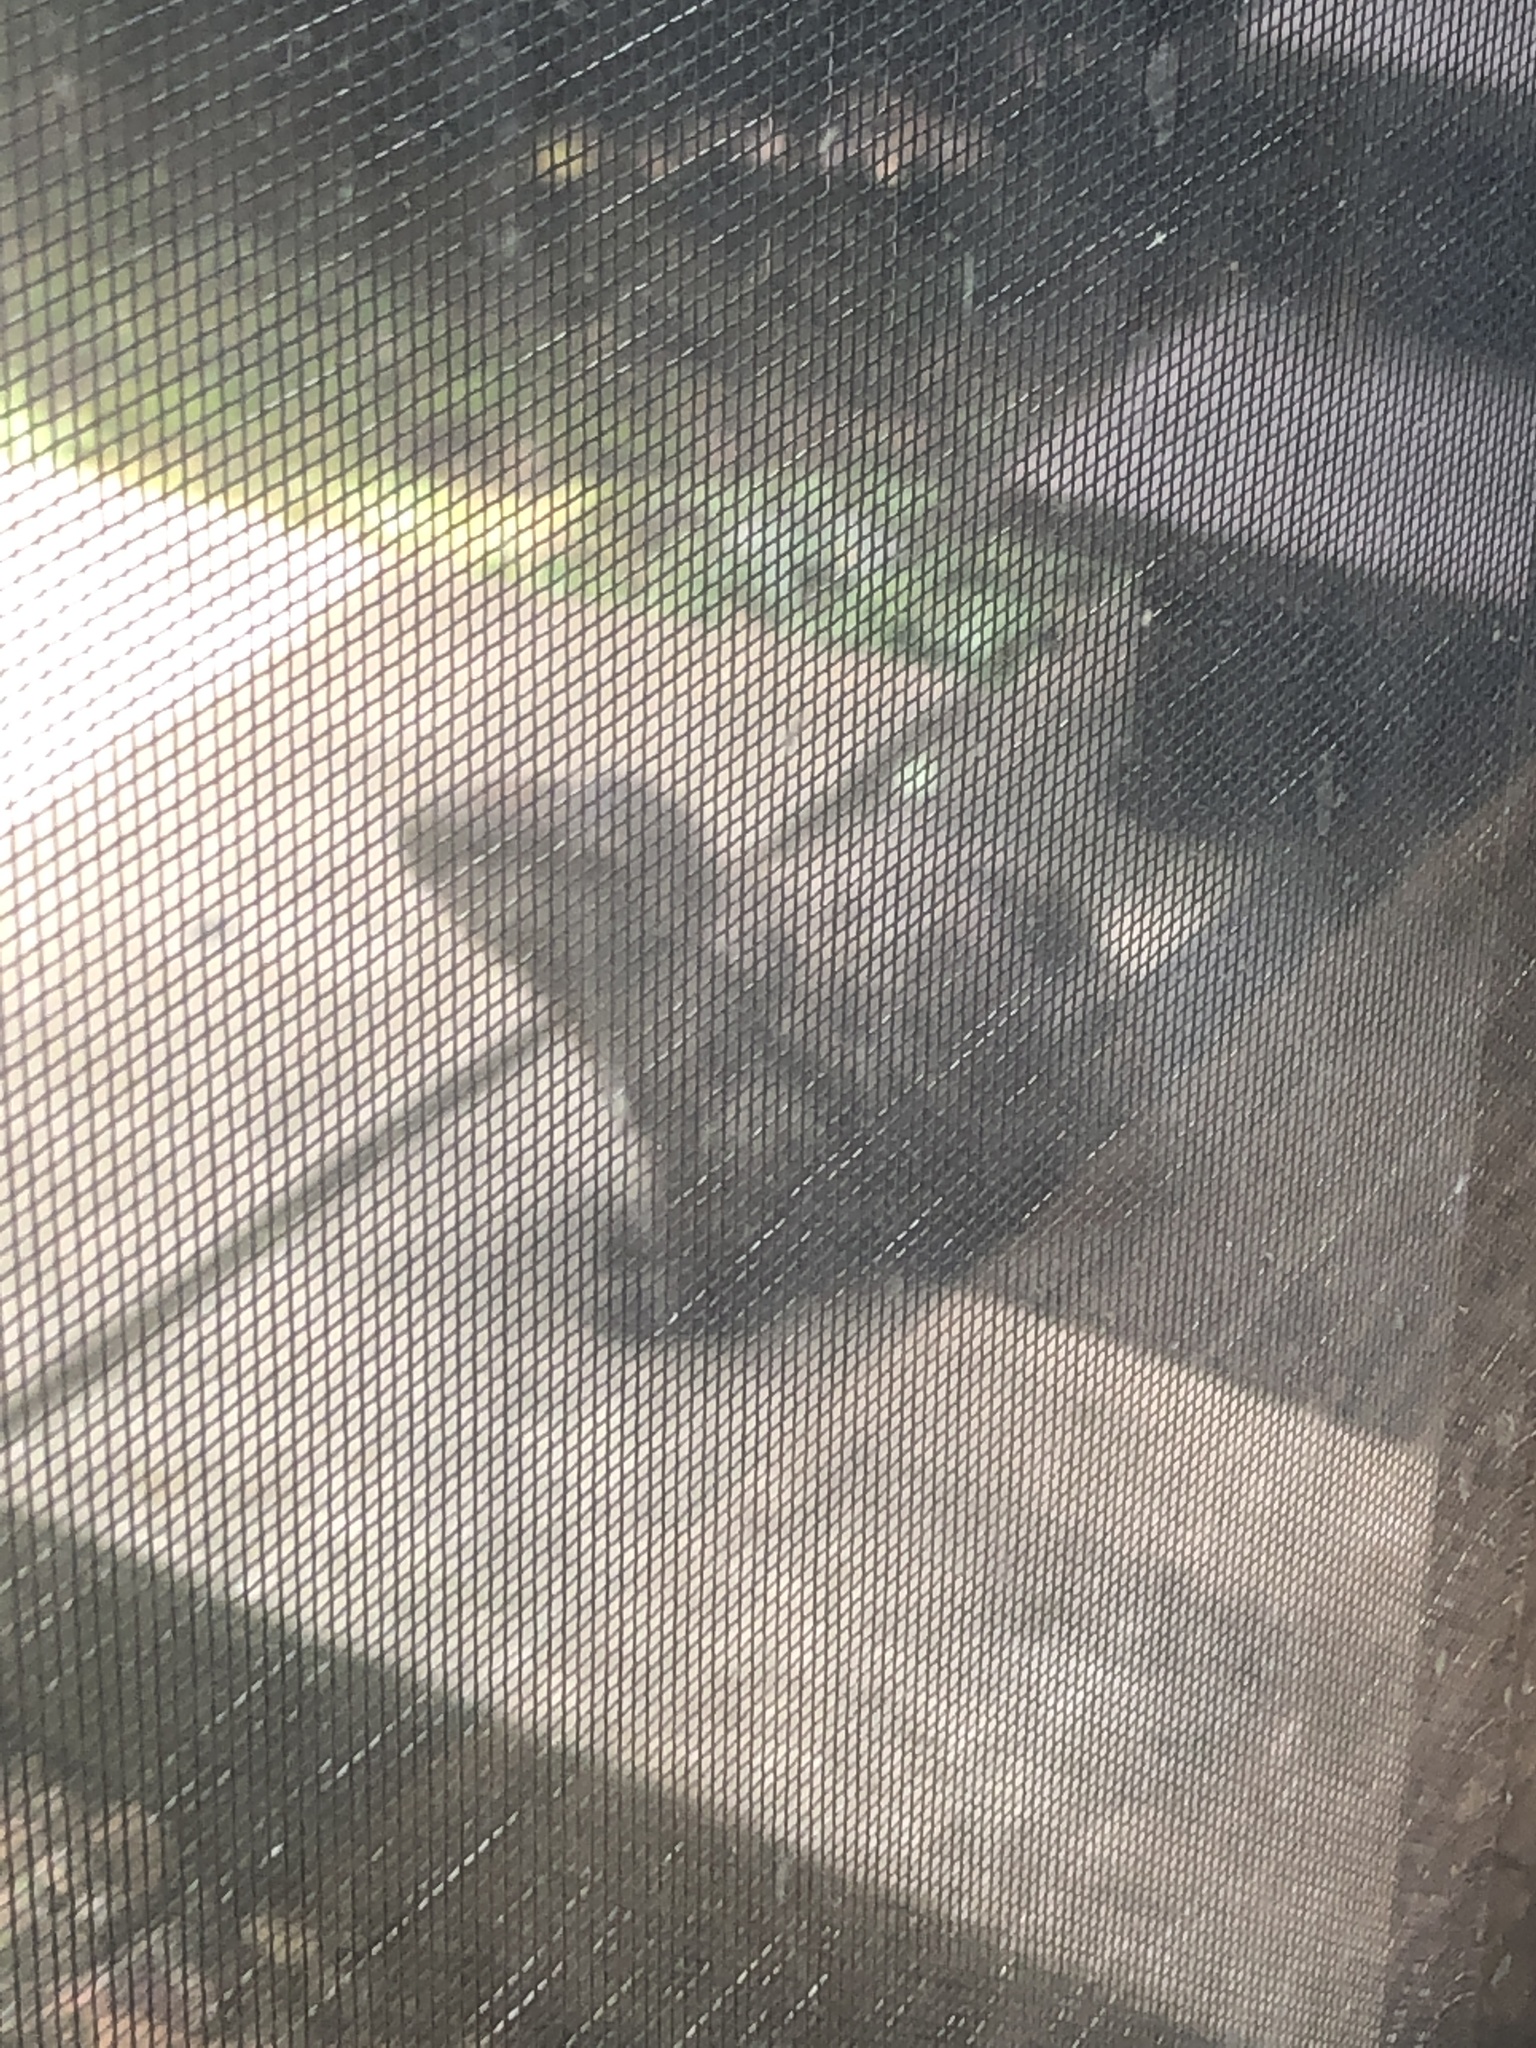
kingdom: Animalia
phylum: Chordata
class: Mammalia
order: Rodentia
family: Sciuridae
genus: Marmota
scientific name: Marmota monax
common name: Groundhog
